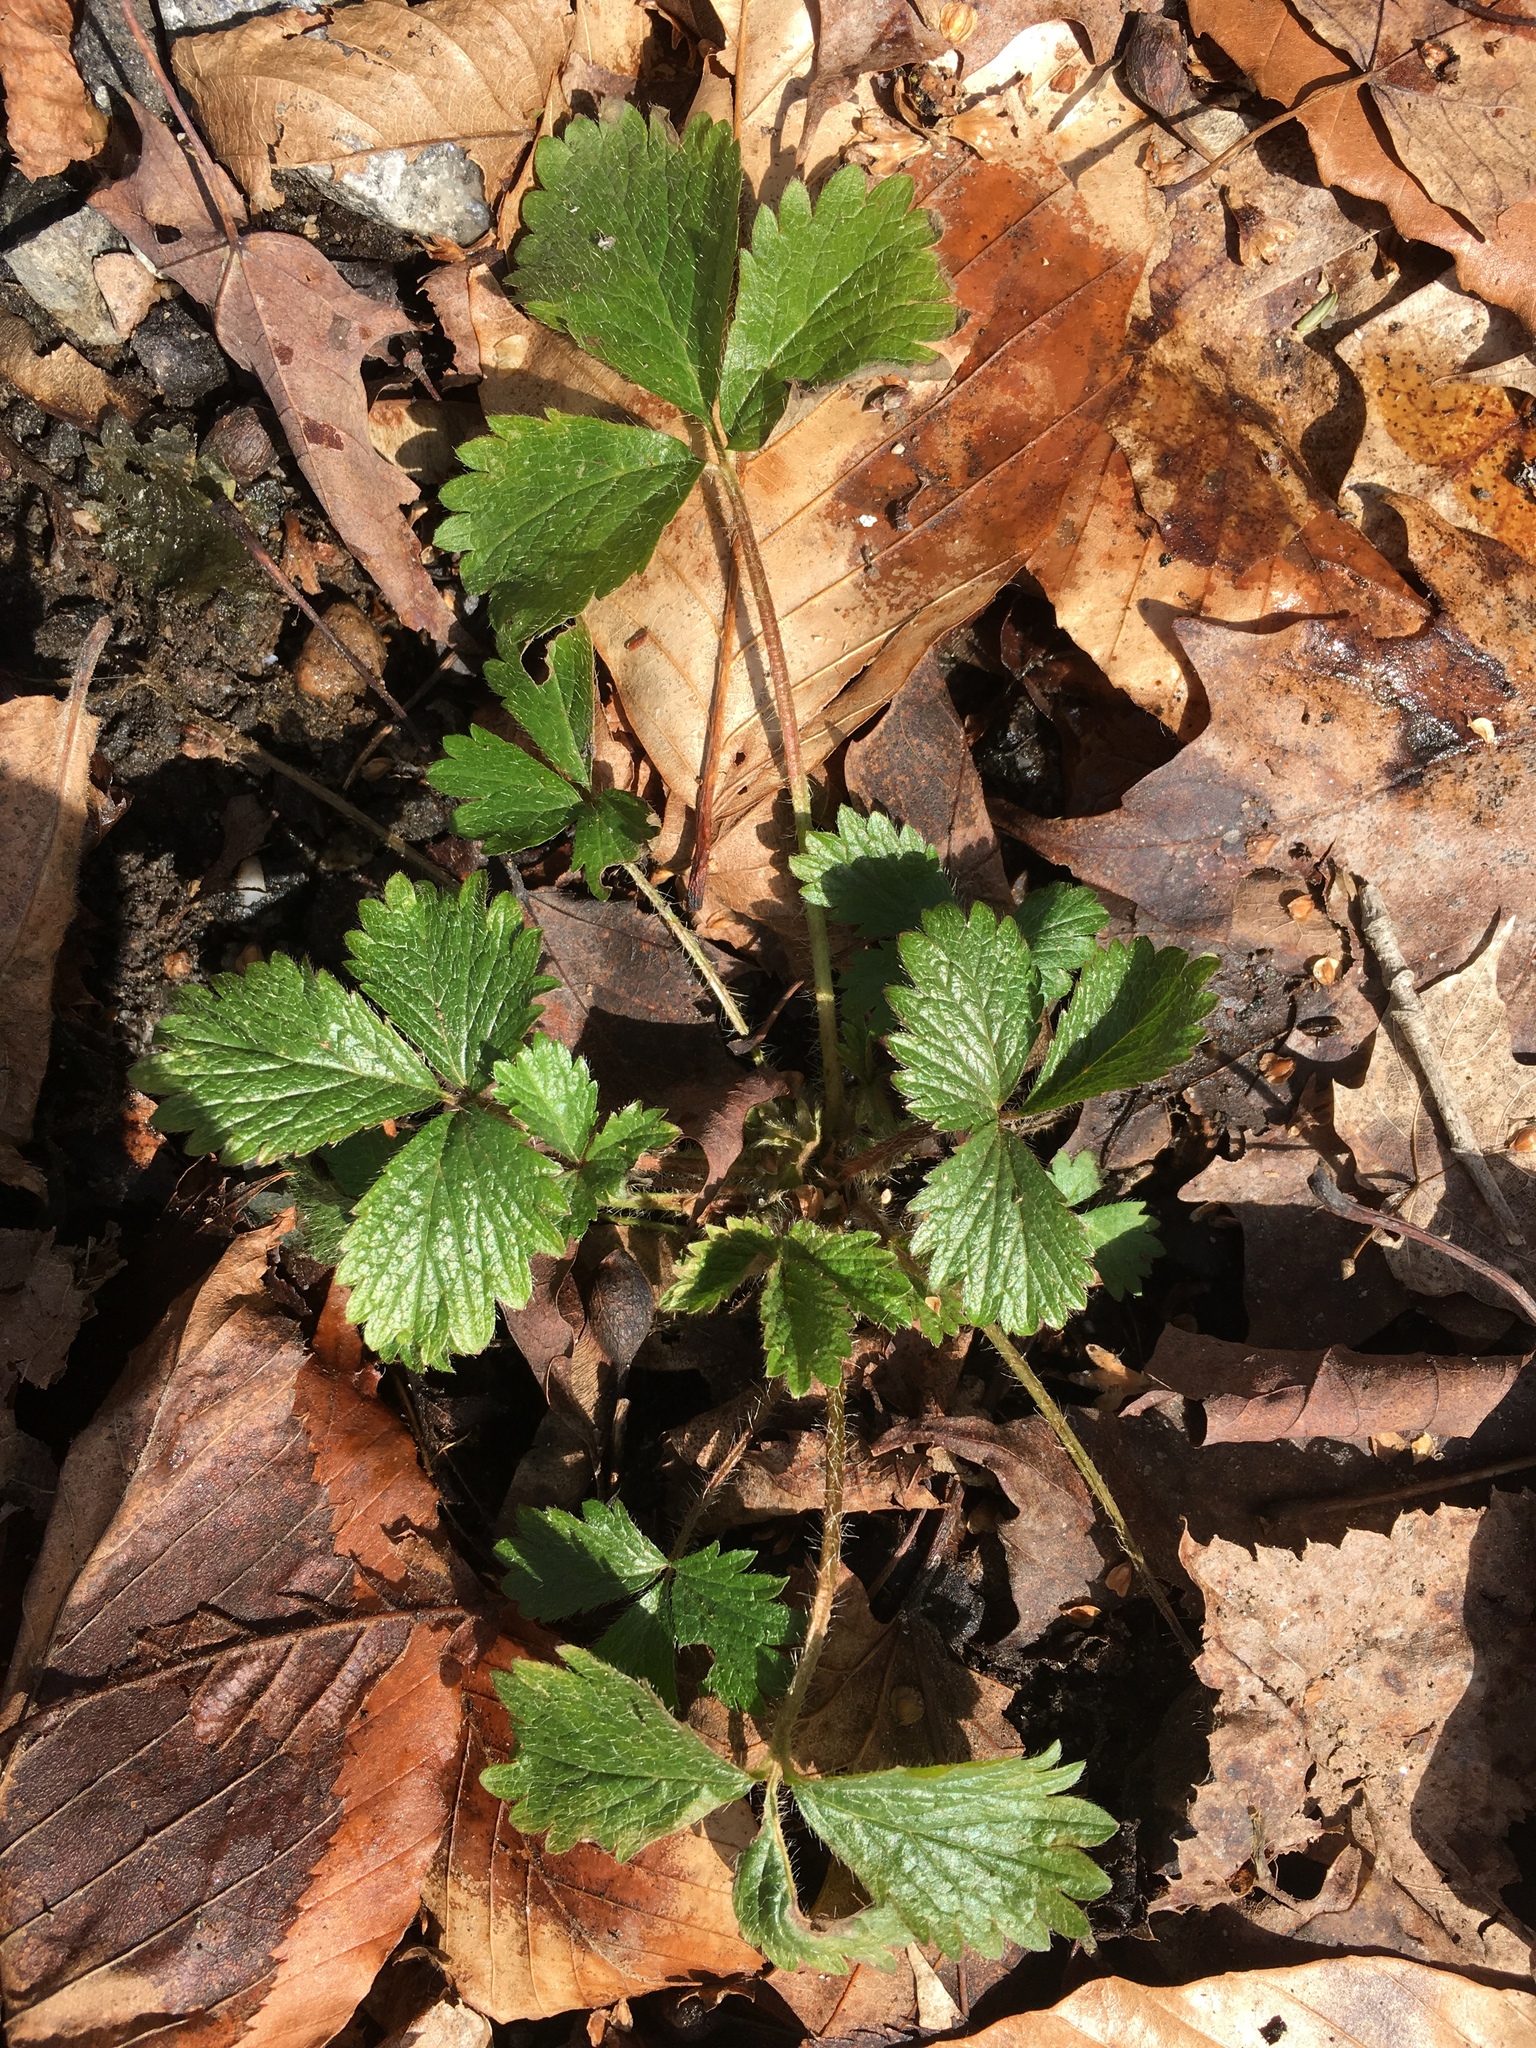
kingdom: Plantae
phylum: Tracheophyta
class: Magnoliopsida
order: Rosales
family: Rosaceae
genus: Potentilla
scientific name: Potentilla indica
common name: Yellow-flowered strawberry
